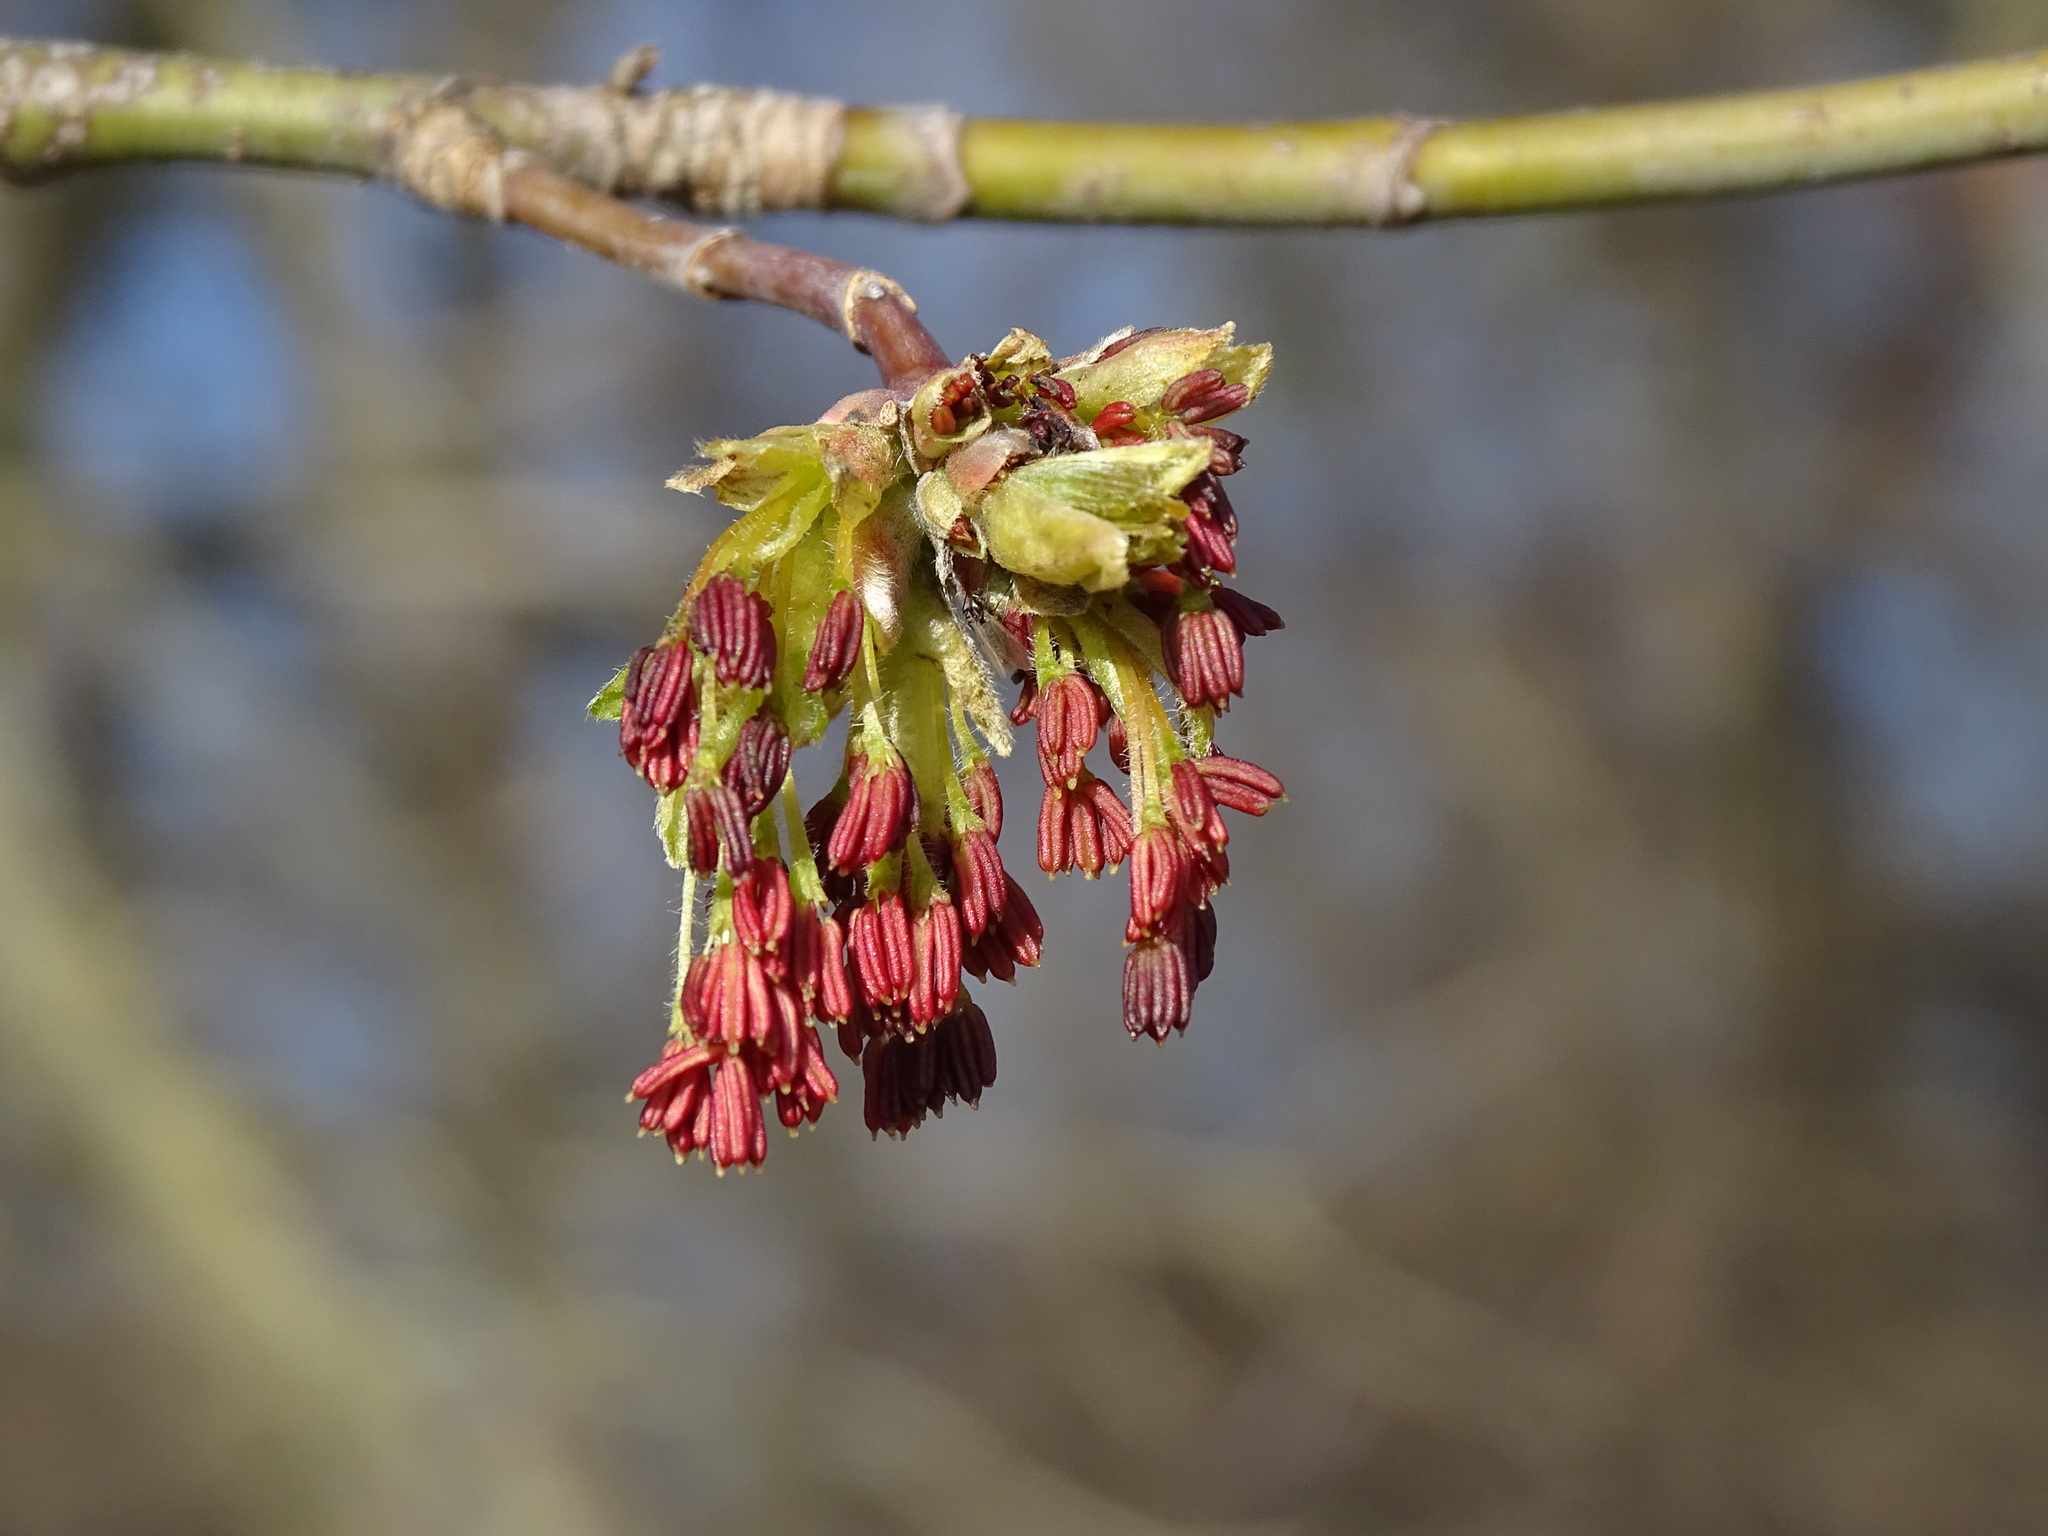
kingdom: Plantae
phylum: Tracheophyta
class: Magnoliopsida
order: Sapindales
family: Sapindaceae
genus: Acer
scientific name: Acer negundo
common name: Ashleaf maple
